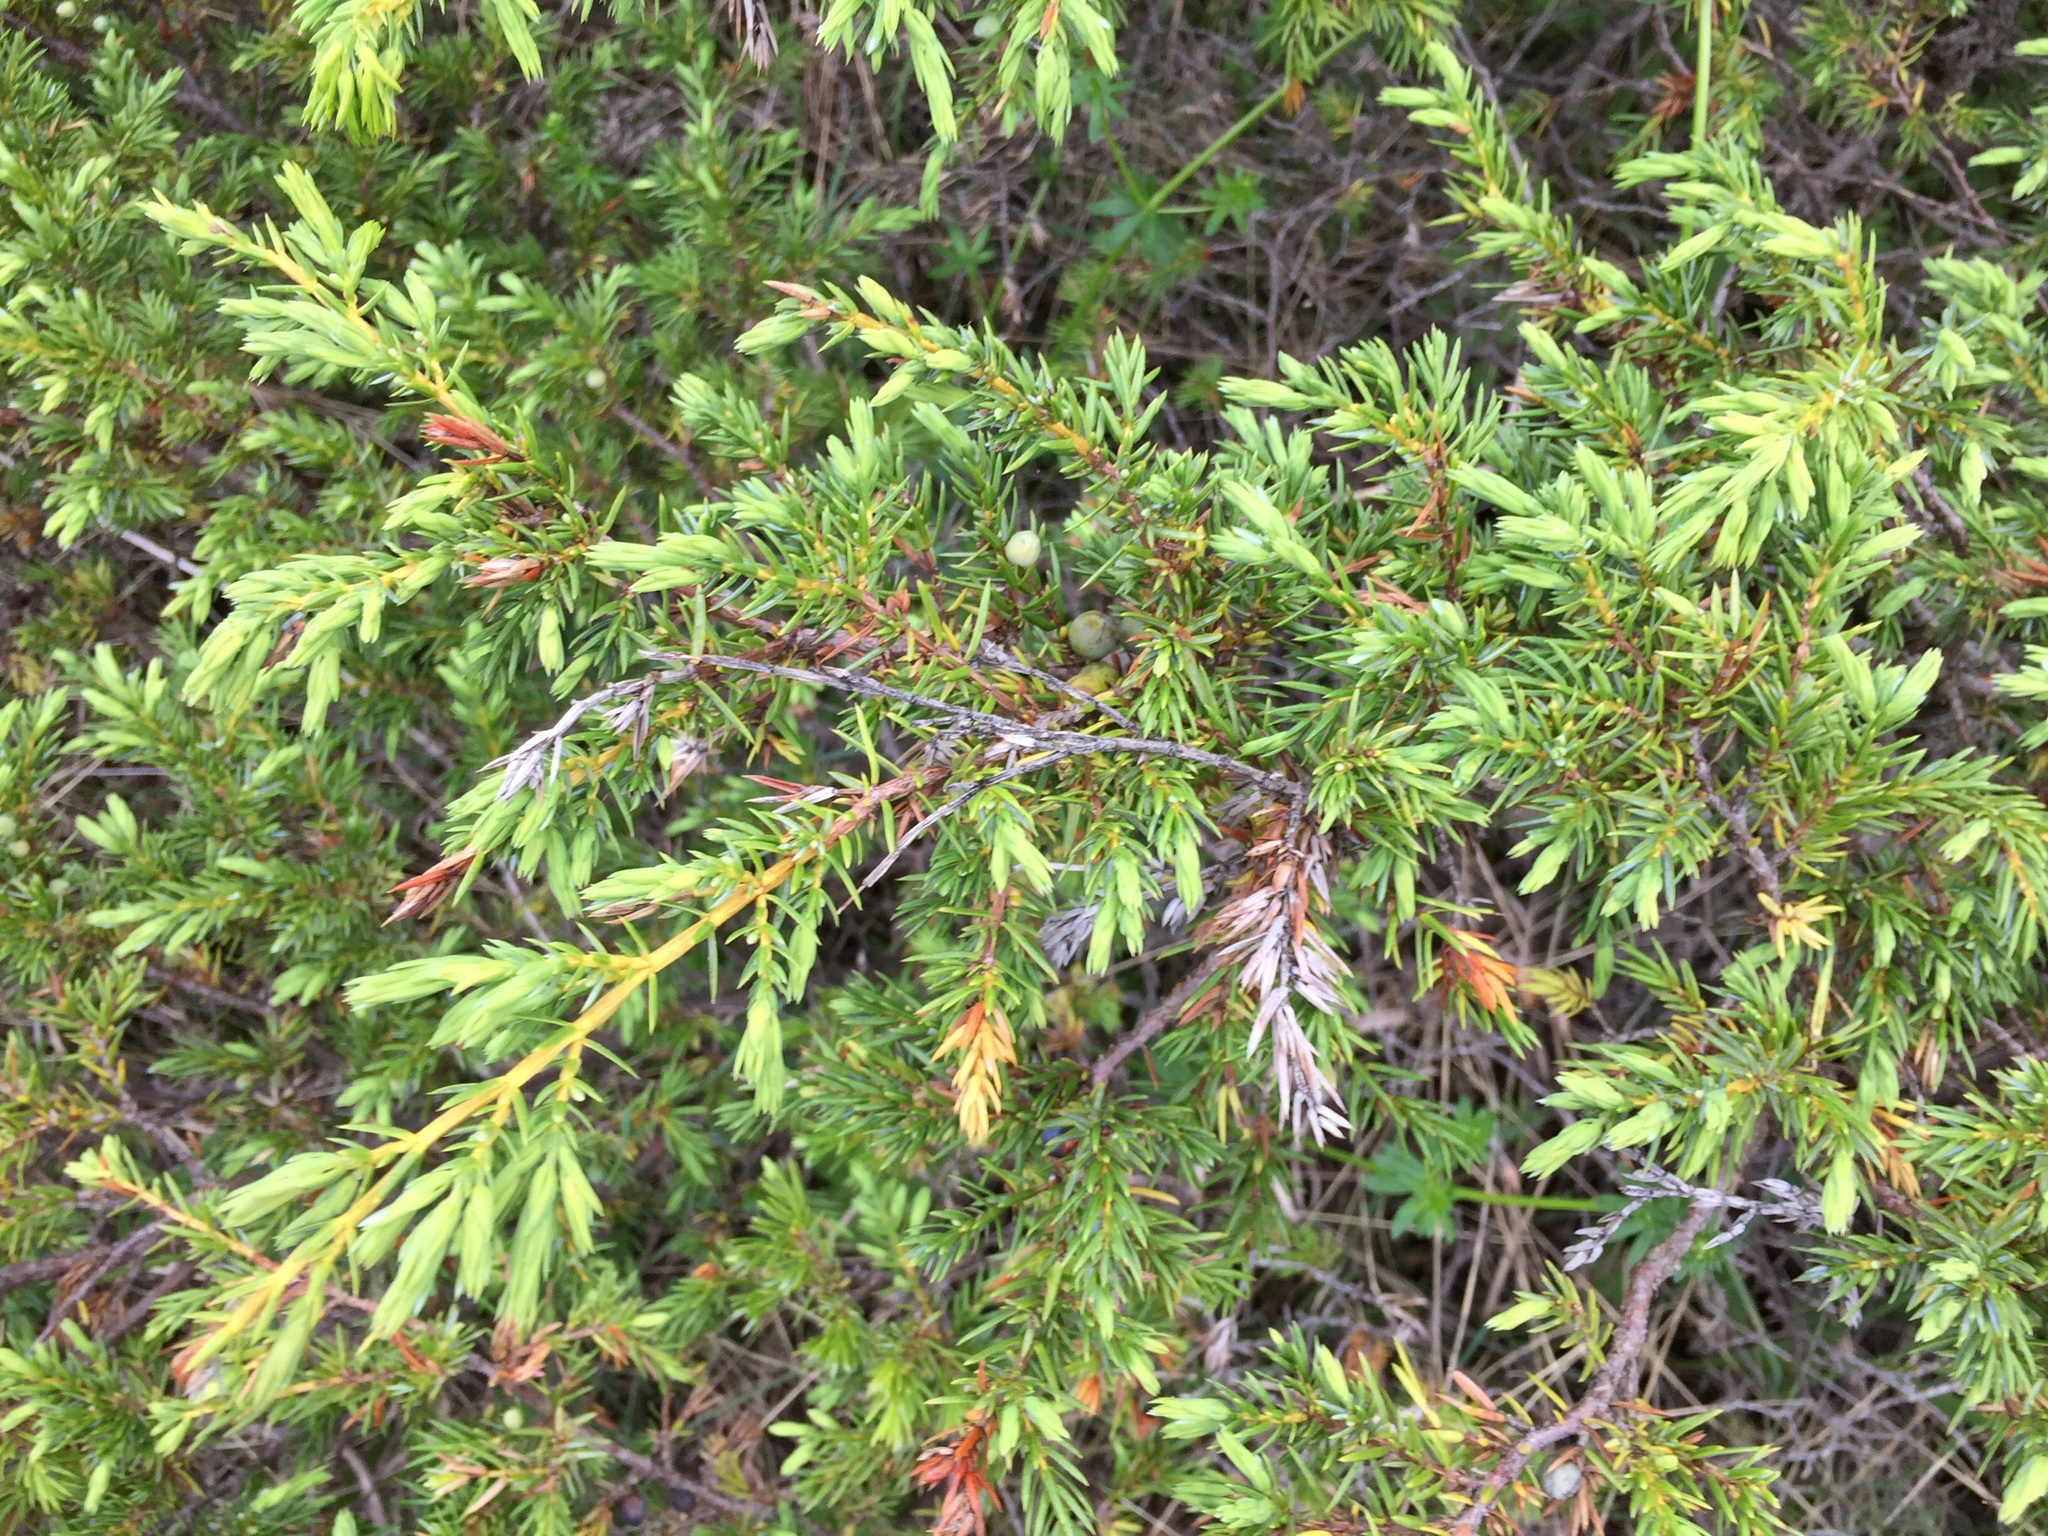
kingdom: Plantae
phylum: Tracheophyta
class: Pinopsida
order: Pinales
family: Cupressaceae
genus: Juniperus
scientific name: Juniperus communis
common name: Common juniper
